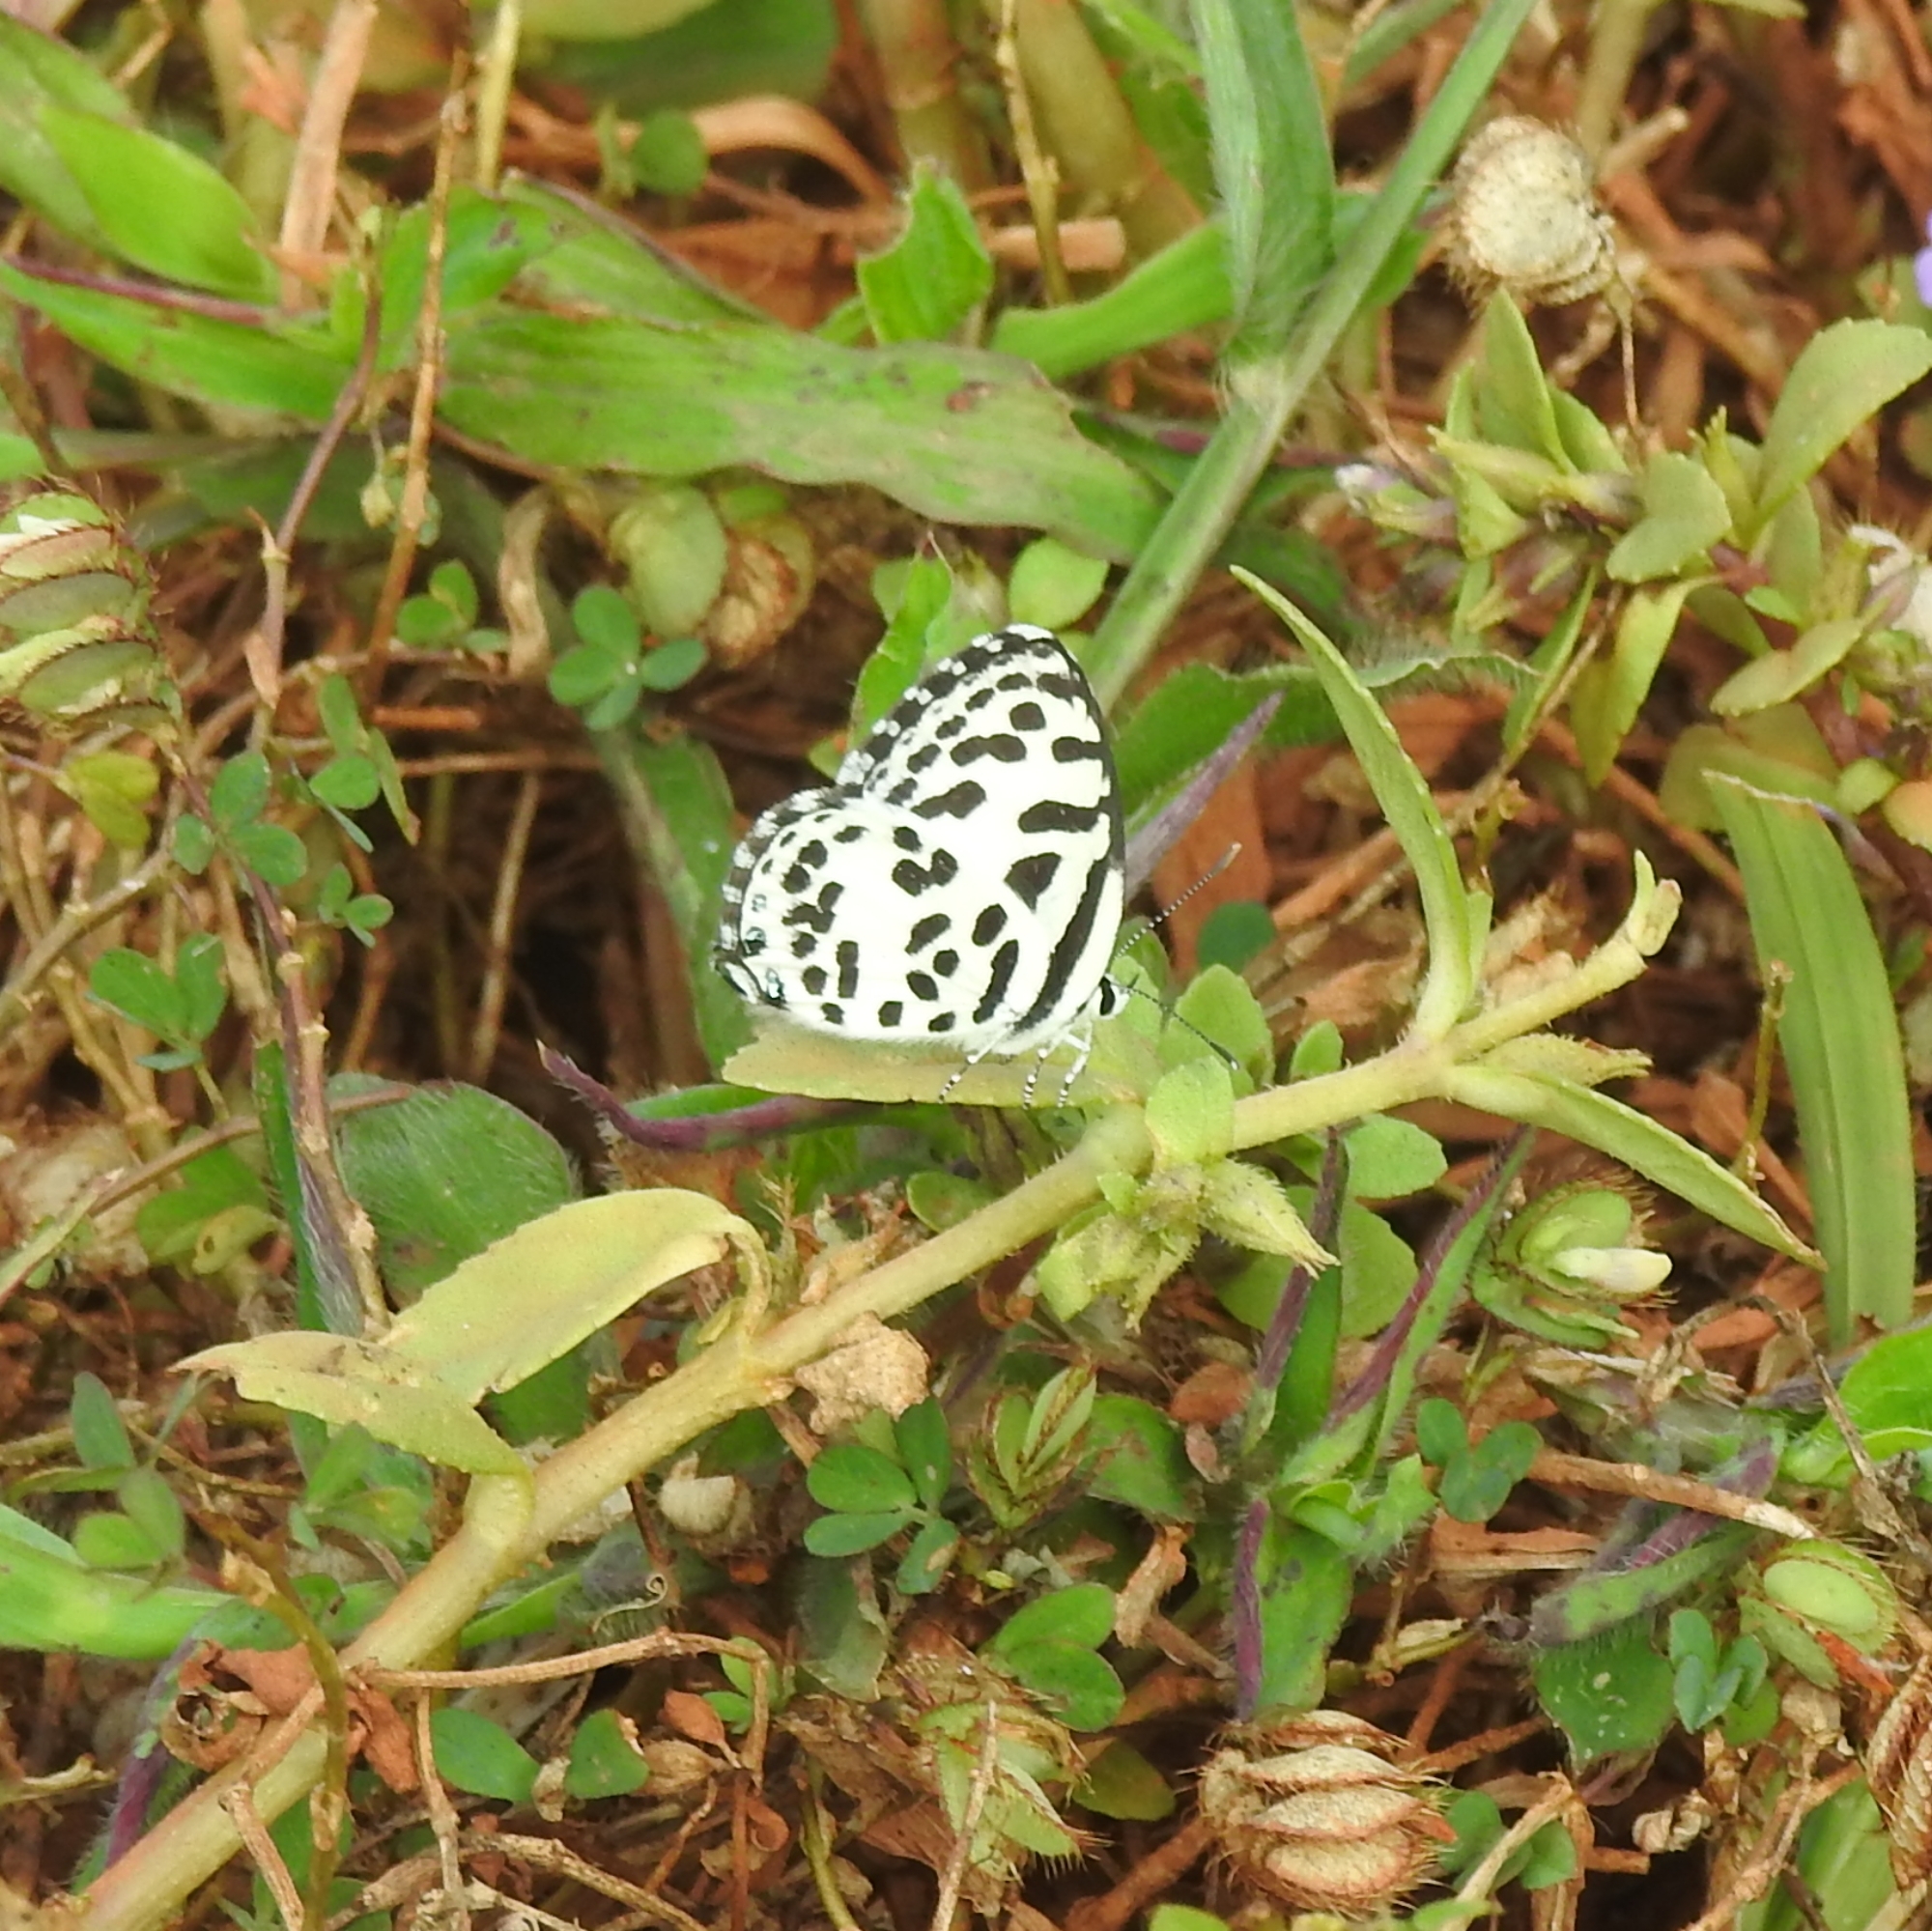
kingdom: Animalia
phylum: Arthropoda
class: Insecta
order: Lepidoptera
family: Lycaenidae
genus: Castalius
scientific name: Castalius rosimon
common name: Common pierrot
